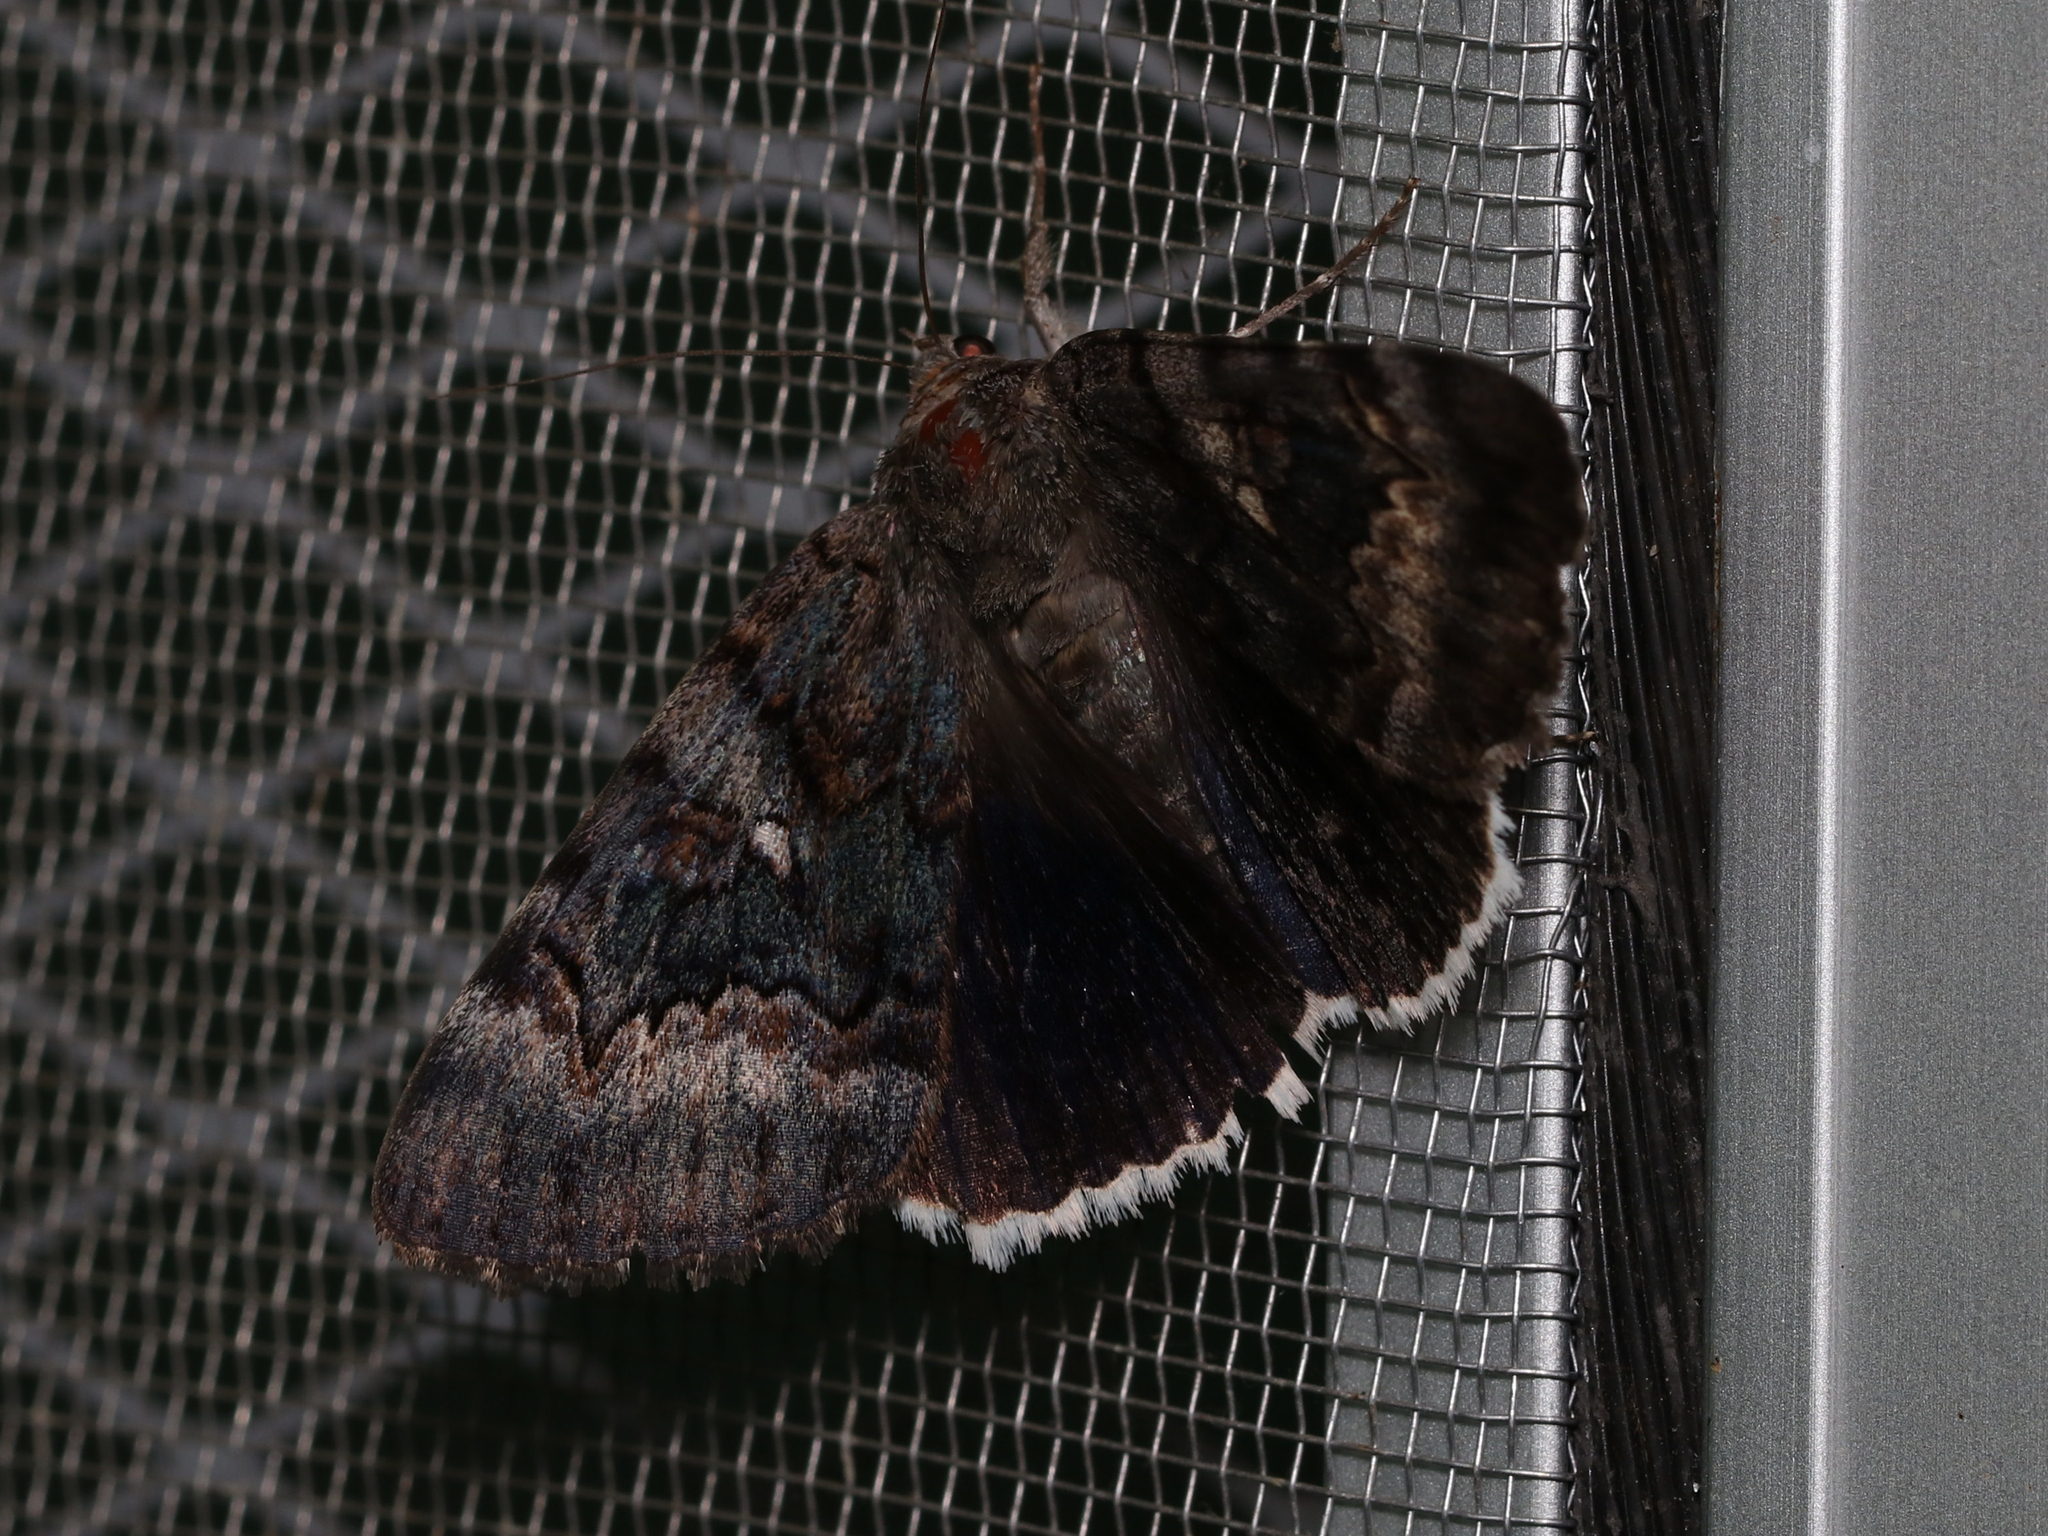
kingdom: Animalia
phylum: Arthropoda
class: Insecta
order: Lepidoptera
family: Erebidae
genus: Catocala
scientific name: Catocala epione
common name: Epione underwing
